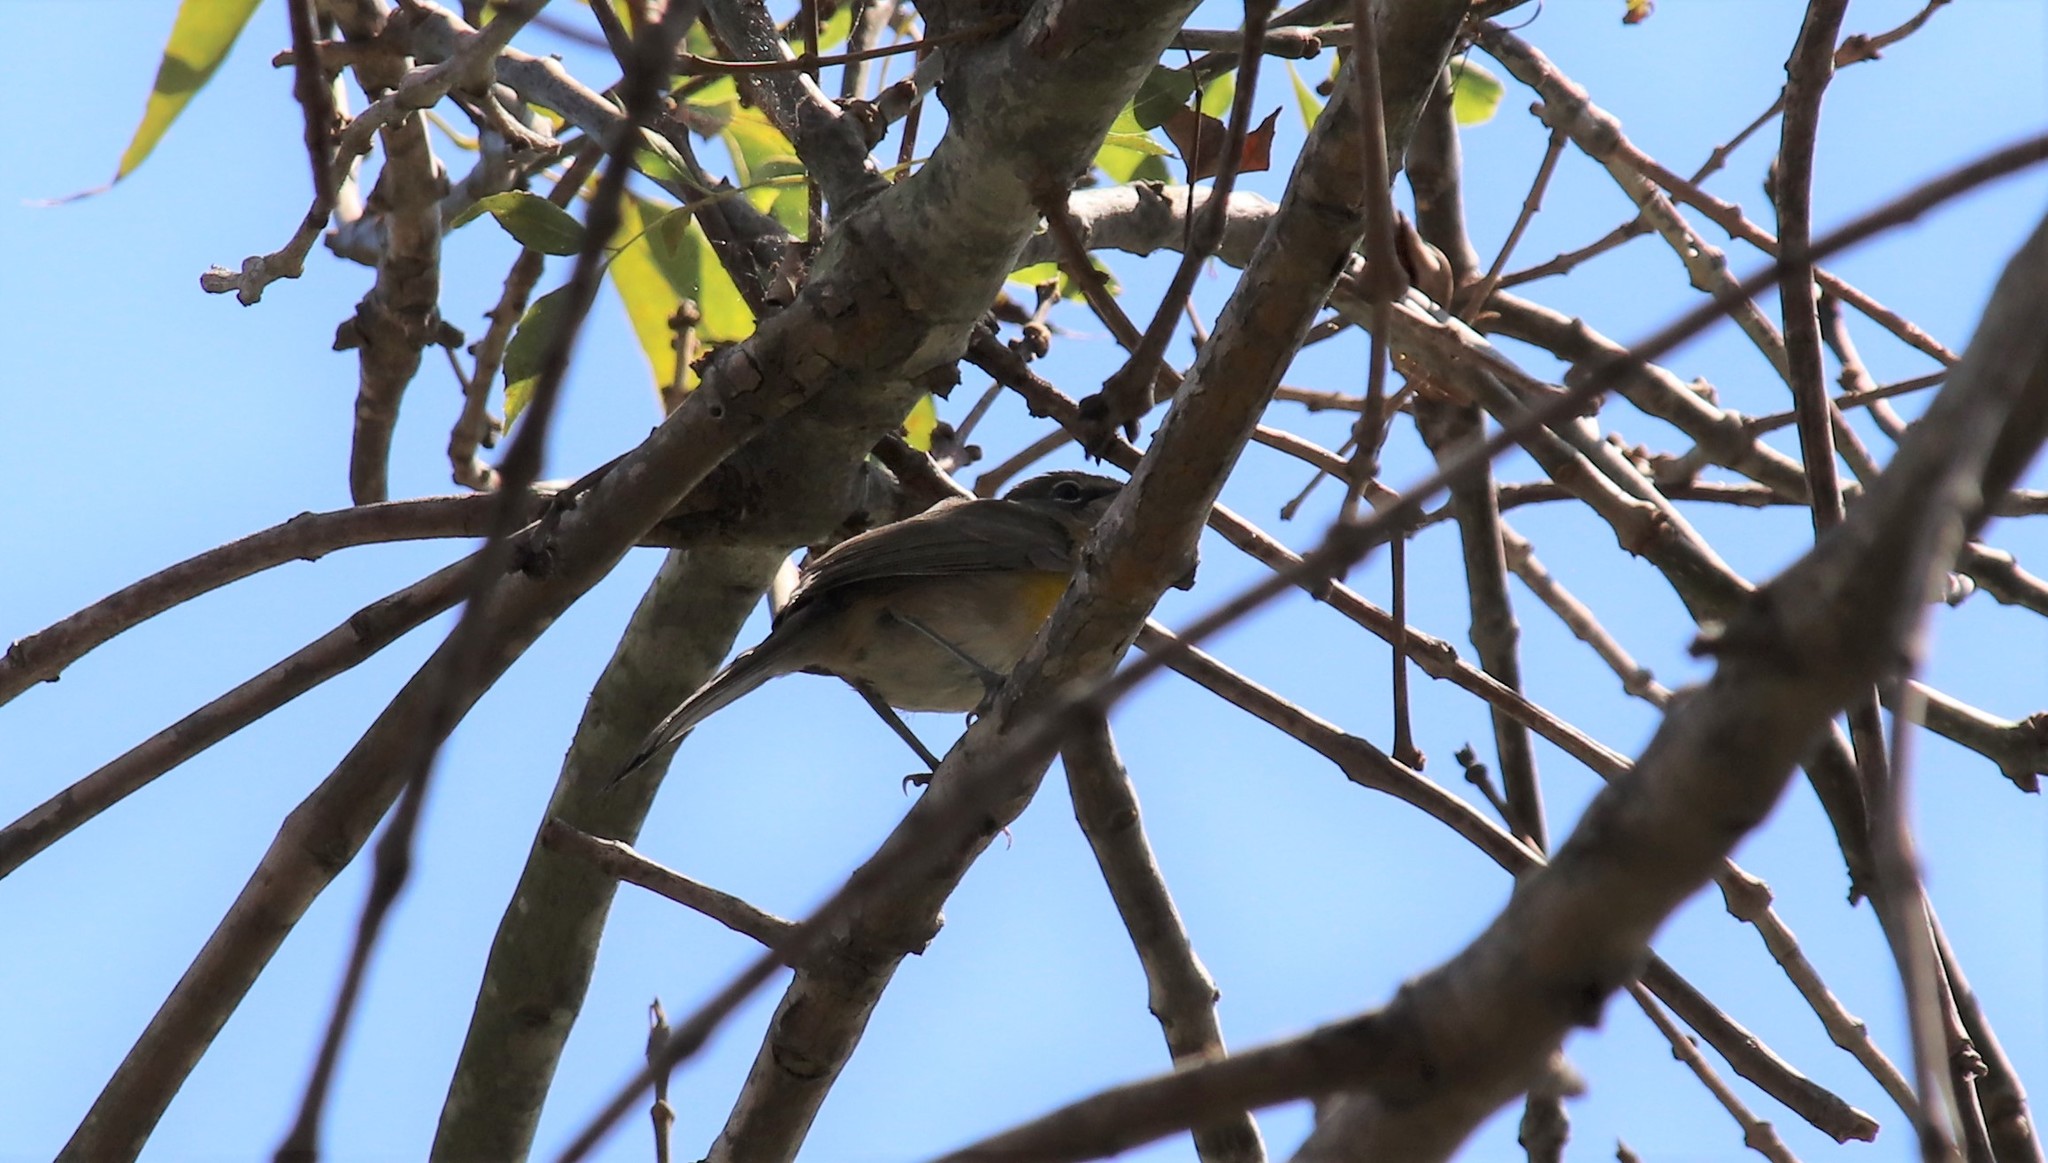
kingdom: Animalia
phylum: Chordata
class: Aves
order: Passeriformes
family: Parulidae
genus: Icteria
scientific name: Icteria virens
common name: Yellow-breasted chat
